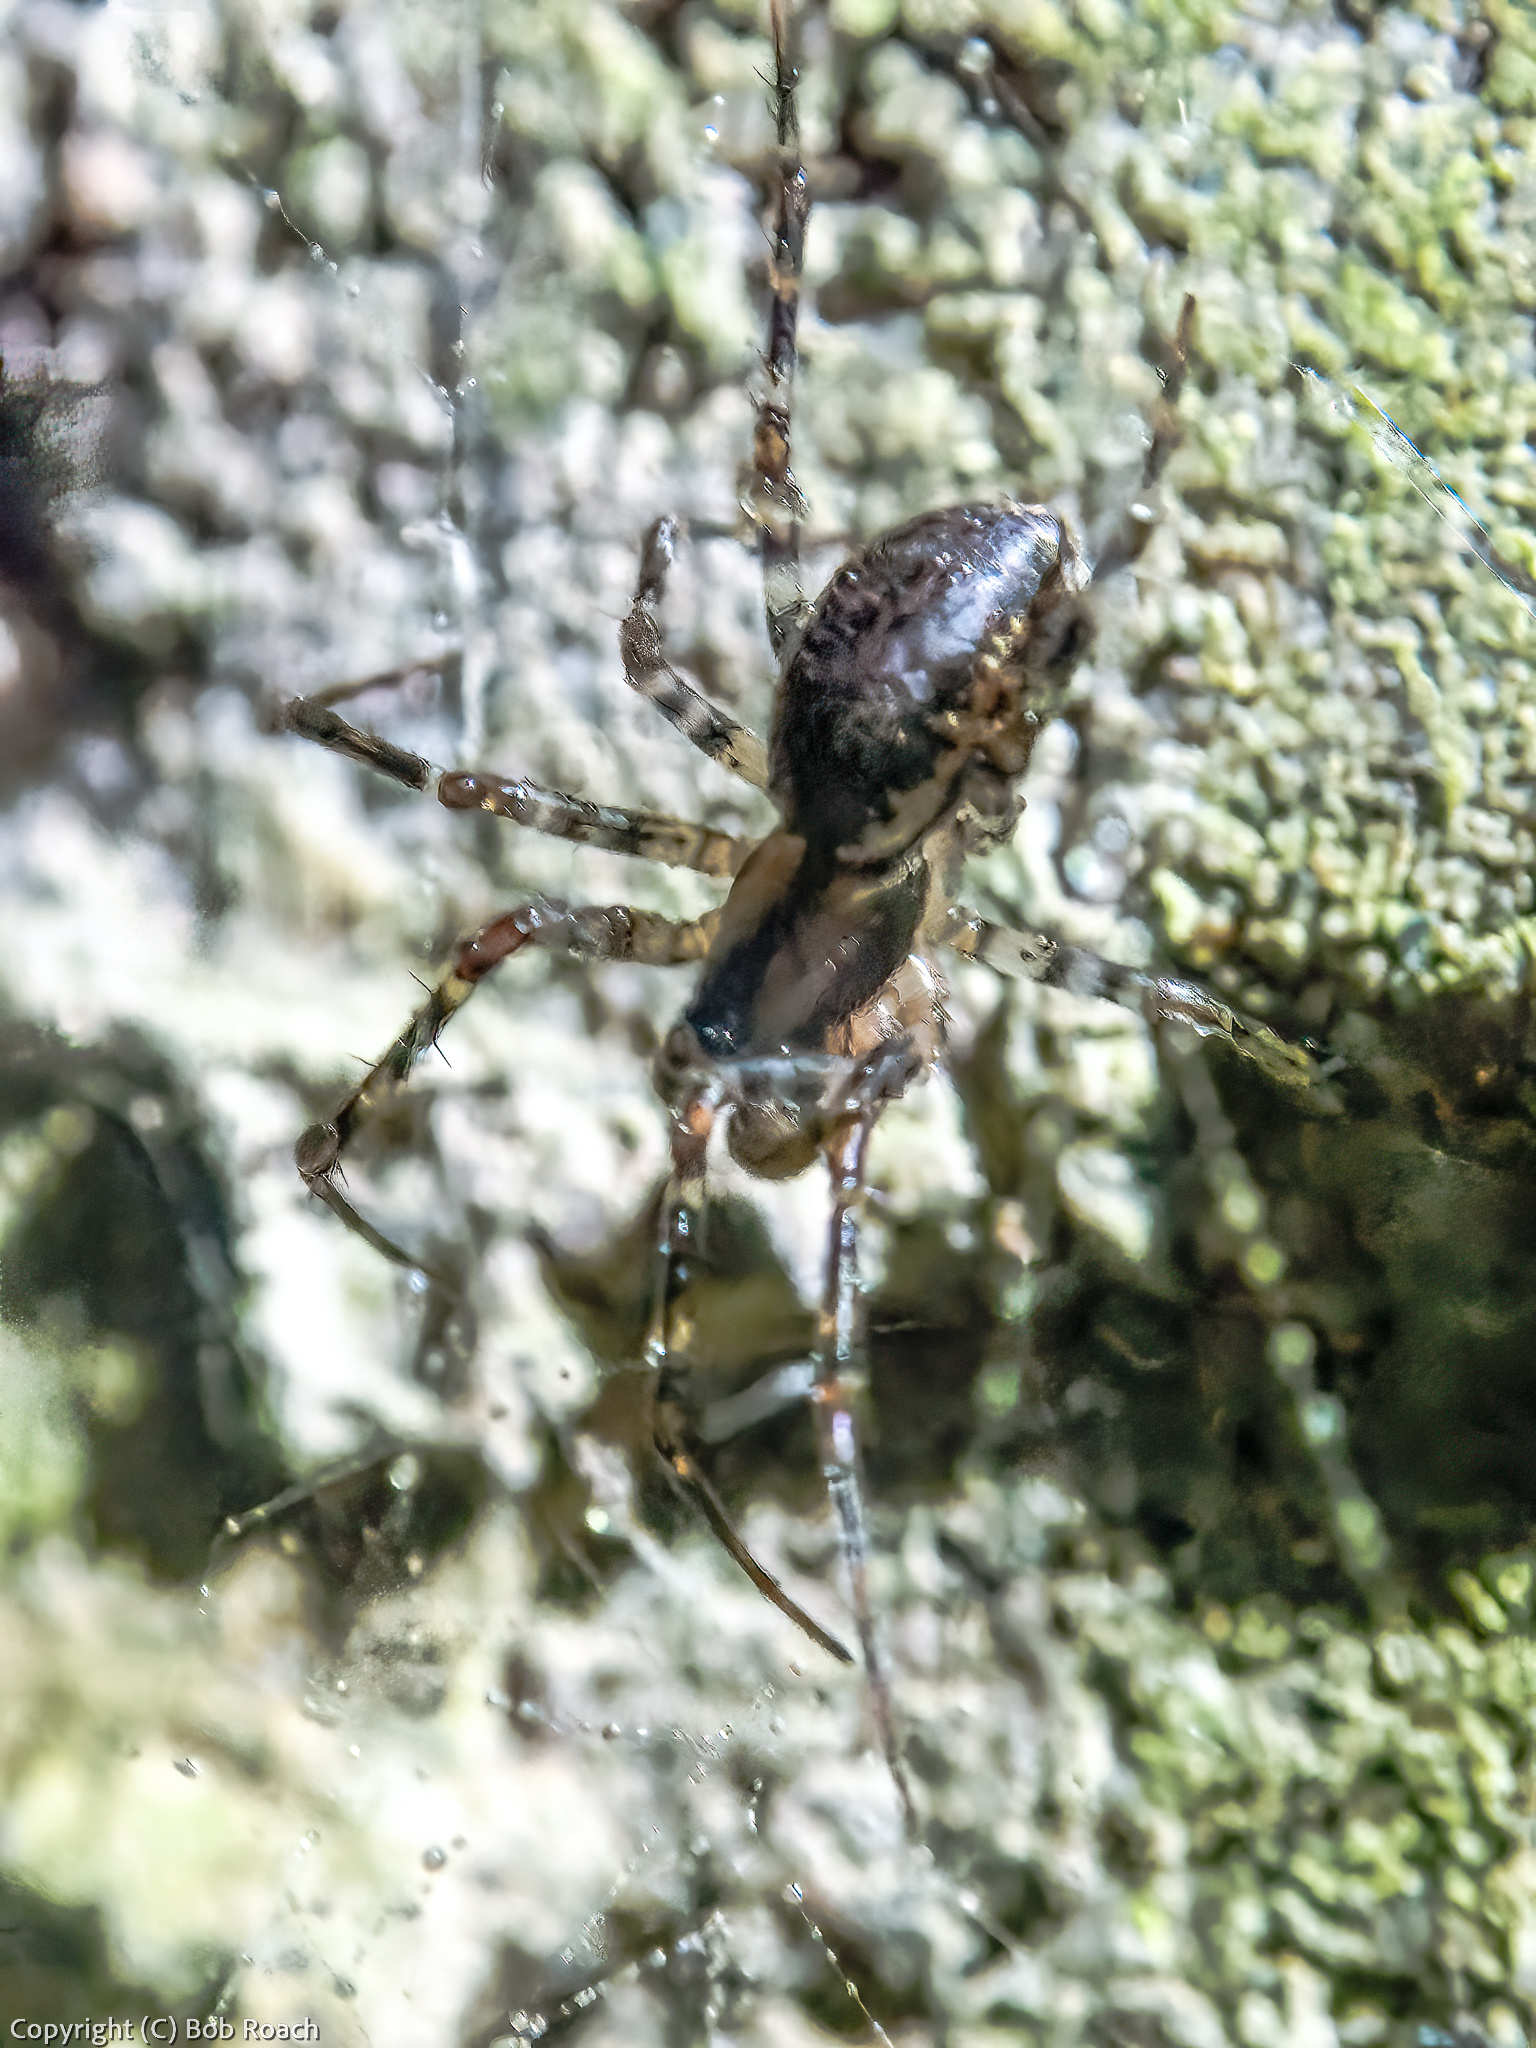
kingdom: Animalia
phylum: Arthropoda
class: Arachnida
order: Araneae
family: Linyphiidae
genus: Neriene
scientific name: Neriene montana
